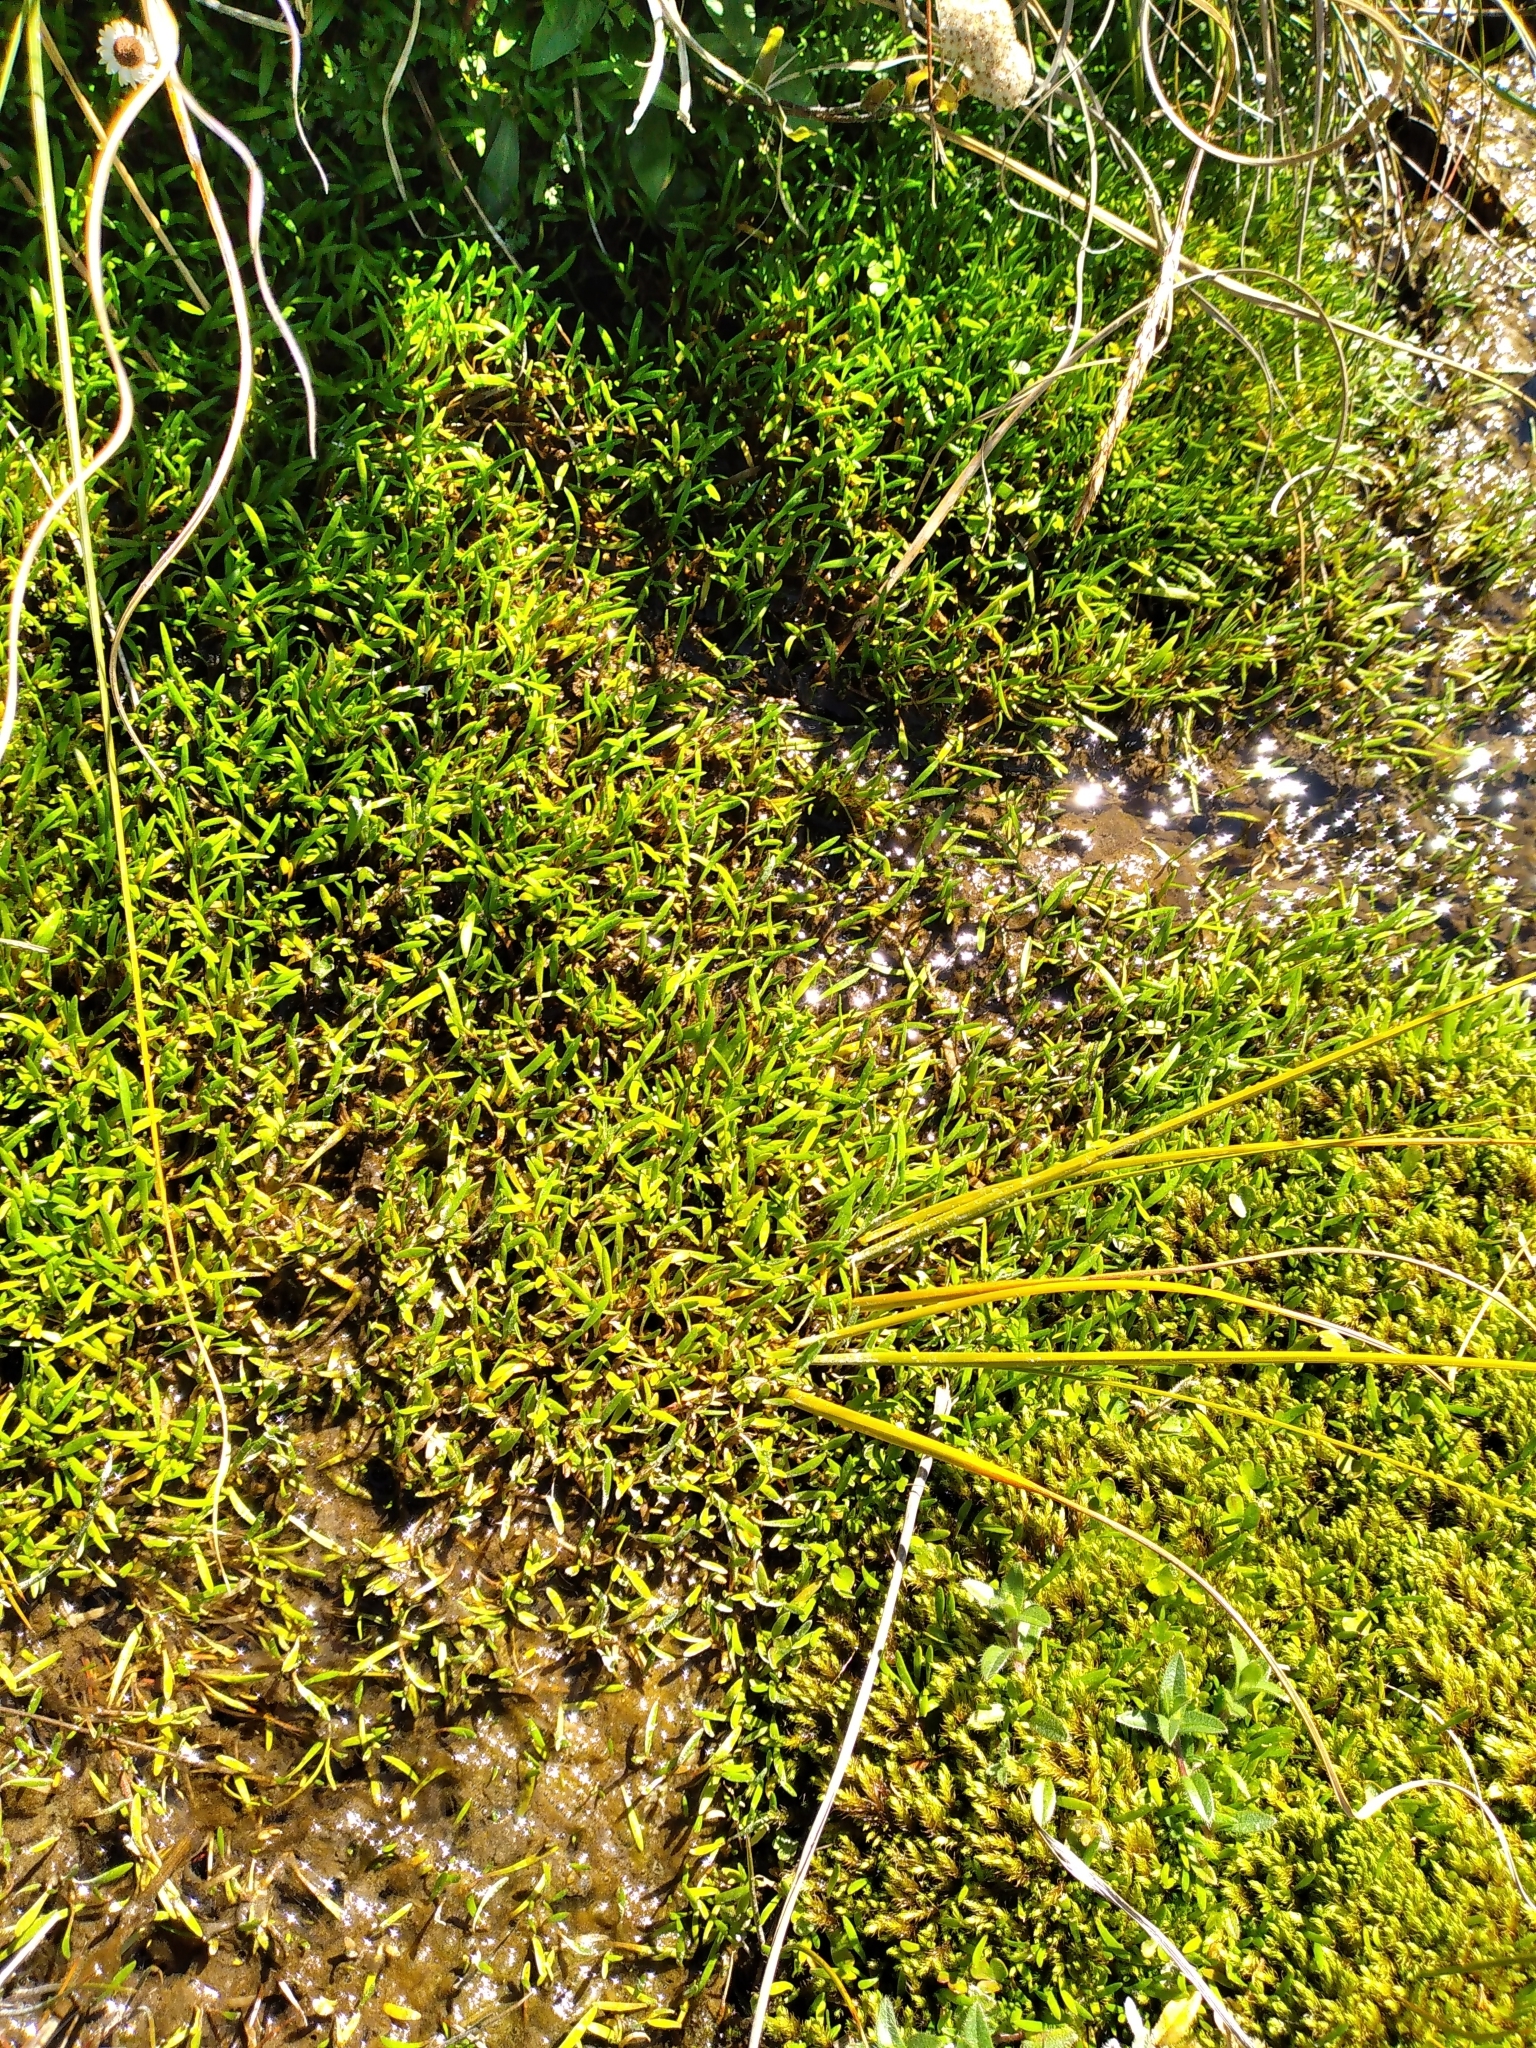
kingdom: Plantae
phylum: Tracheophyta
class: Magnoliopsida
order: Caryophyllales
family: Montiaceae
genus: Montia
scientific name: Montia sessiliflora
